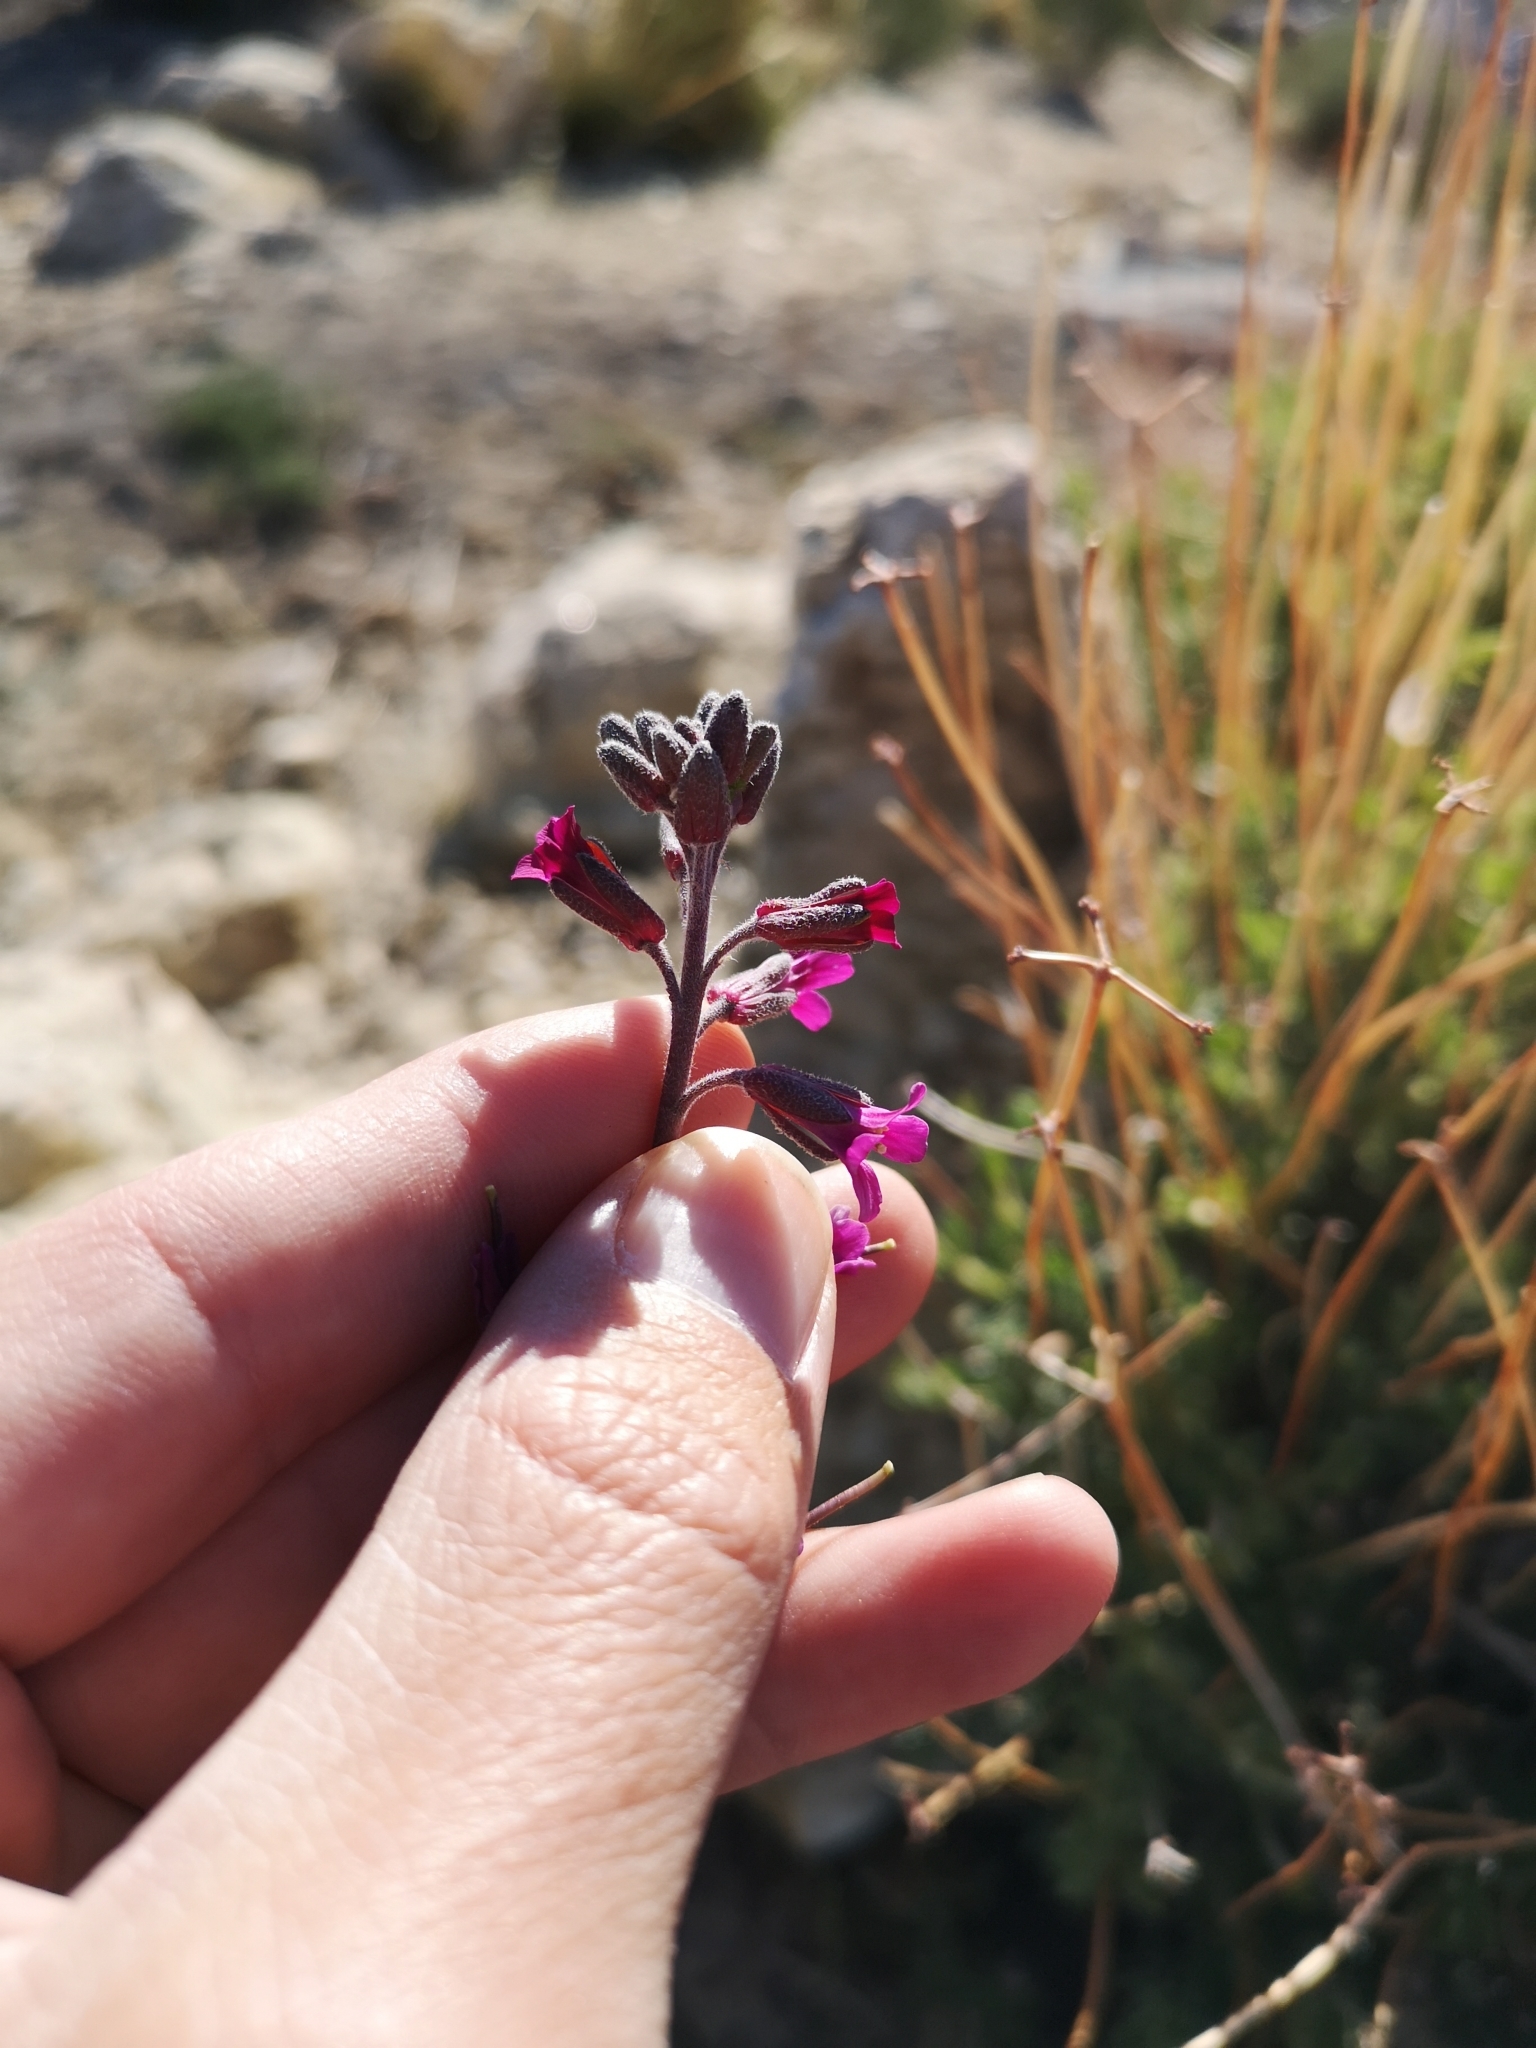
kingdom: Plantae
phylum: Tracheophyta
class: Magnoliopsida
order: Brassicales
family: Brassicaceae
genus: Boechera
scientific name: Boechera arcuata
